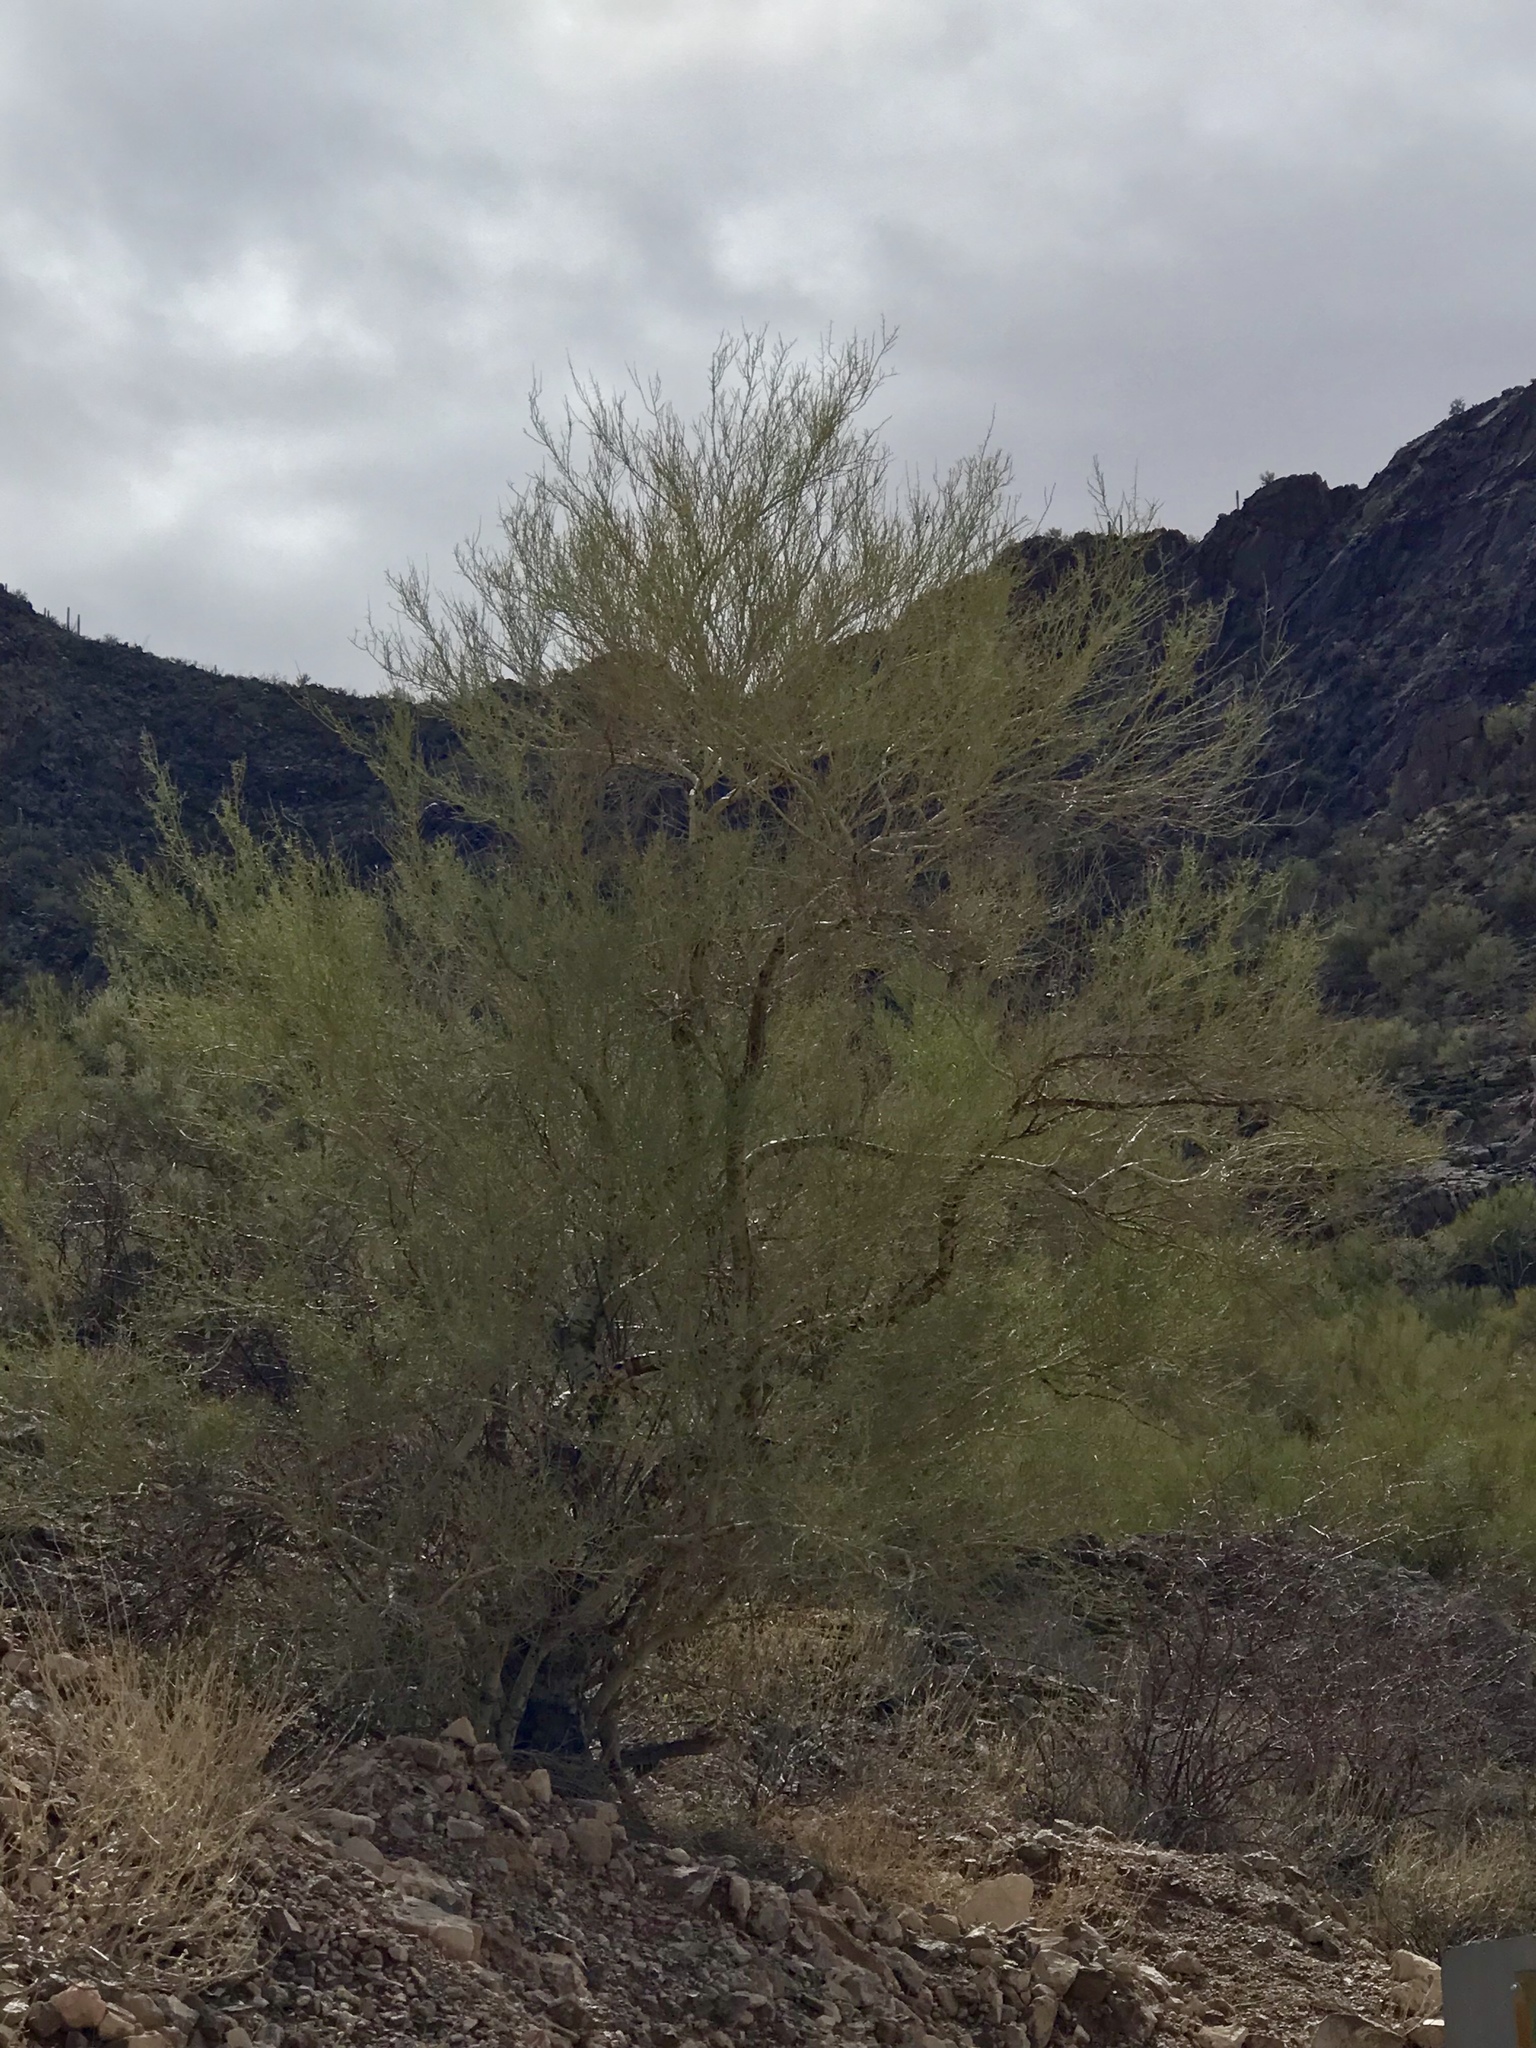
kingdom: Plantae
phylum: Tracheophyta
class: Magnoliopsida
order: Fabales
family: Fabaceae
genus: Parkinsonia
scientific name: Parkinsonia microphylla
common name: Yellow paloverde
